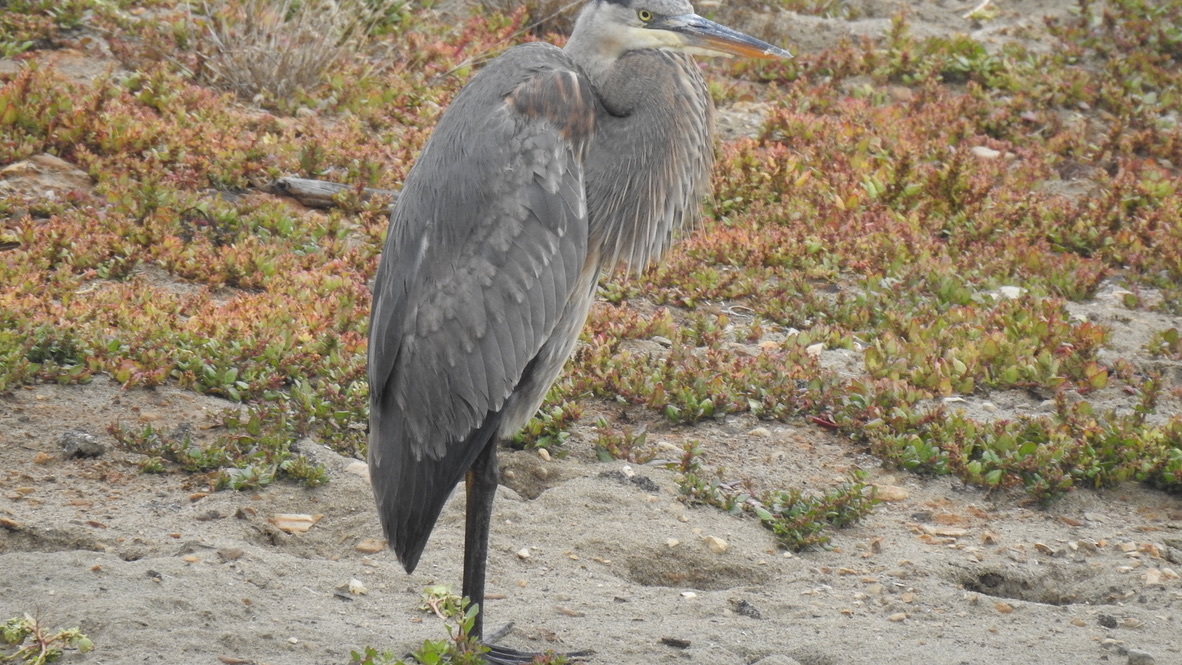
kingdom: Animalia
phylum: Chordata
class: Aves
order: Pelecaniformes
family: Ardeidae
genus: Ardea
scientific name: Ardea herodias
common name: Great blue heron
